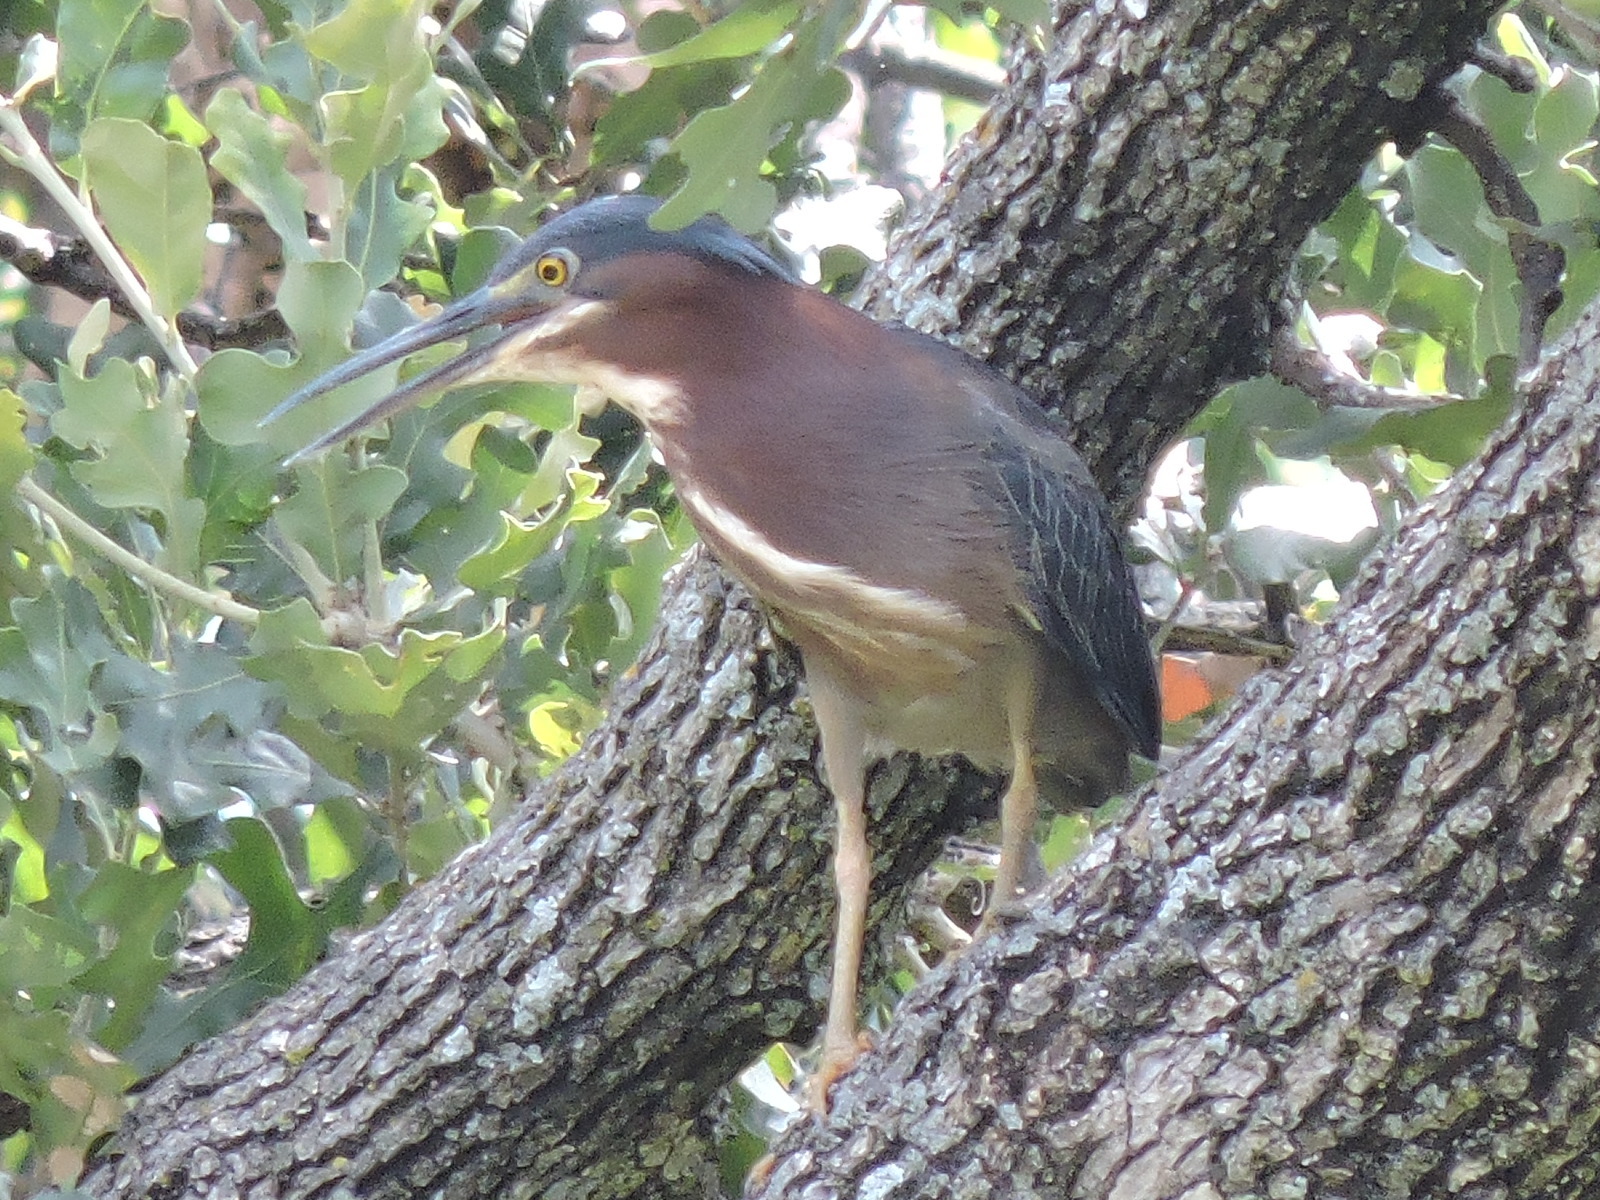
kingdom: Animalia
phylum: Chordata
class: Aves
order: Pelecaniformes
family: Ardeidae
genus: Butorides
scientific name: Butorides virescens
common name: Green heron
